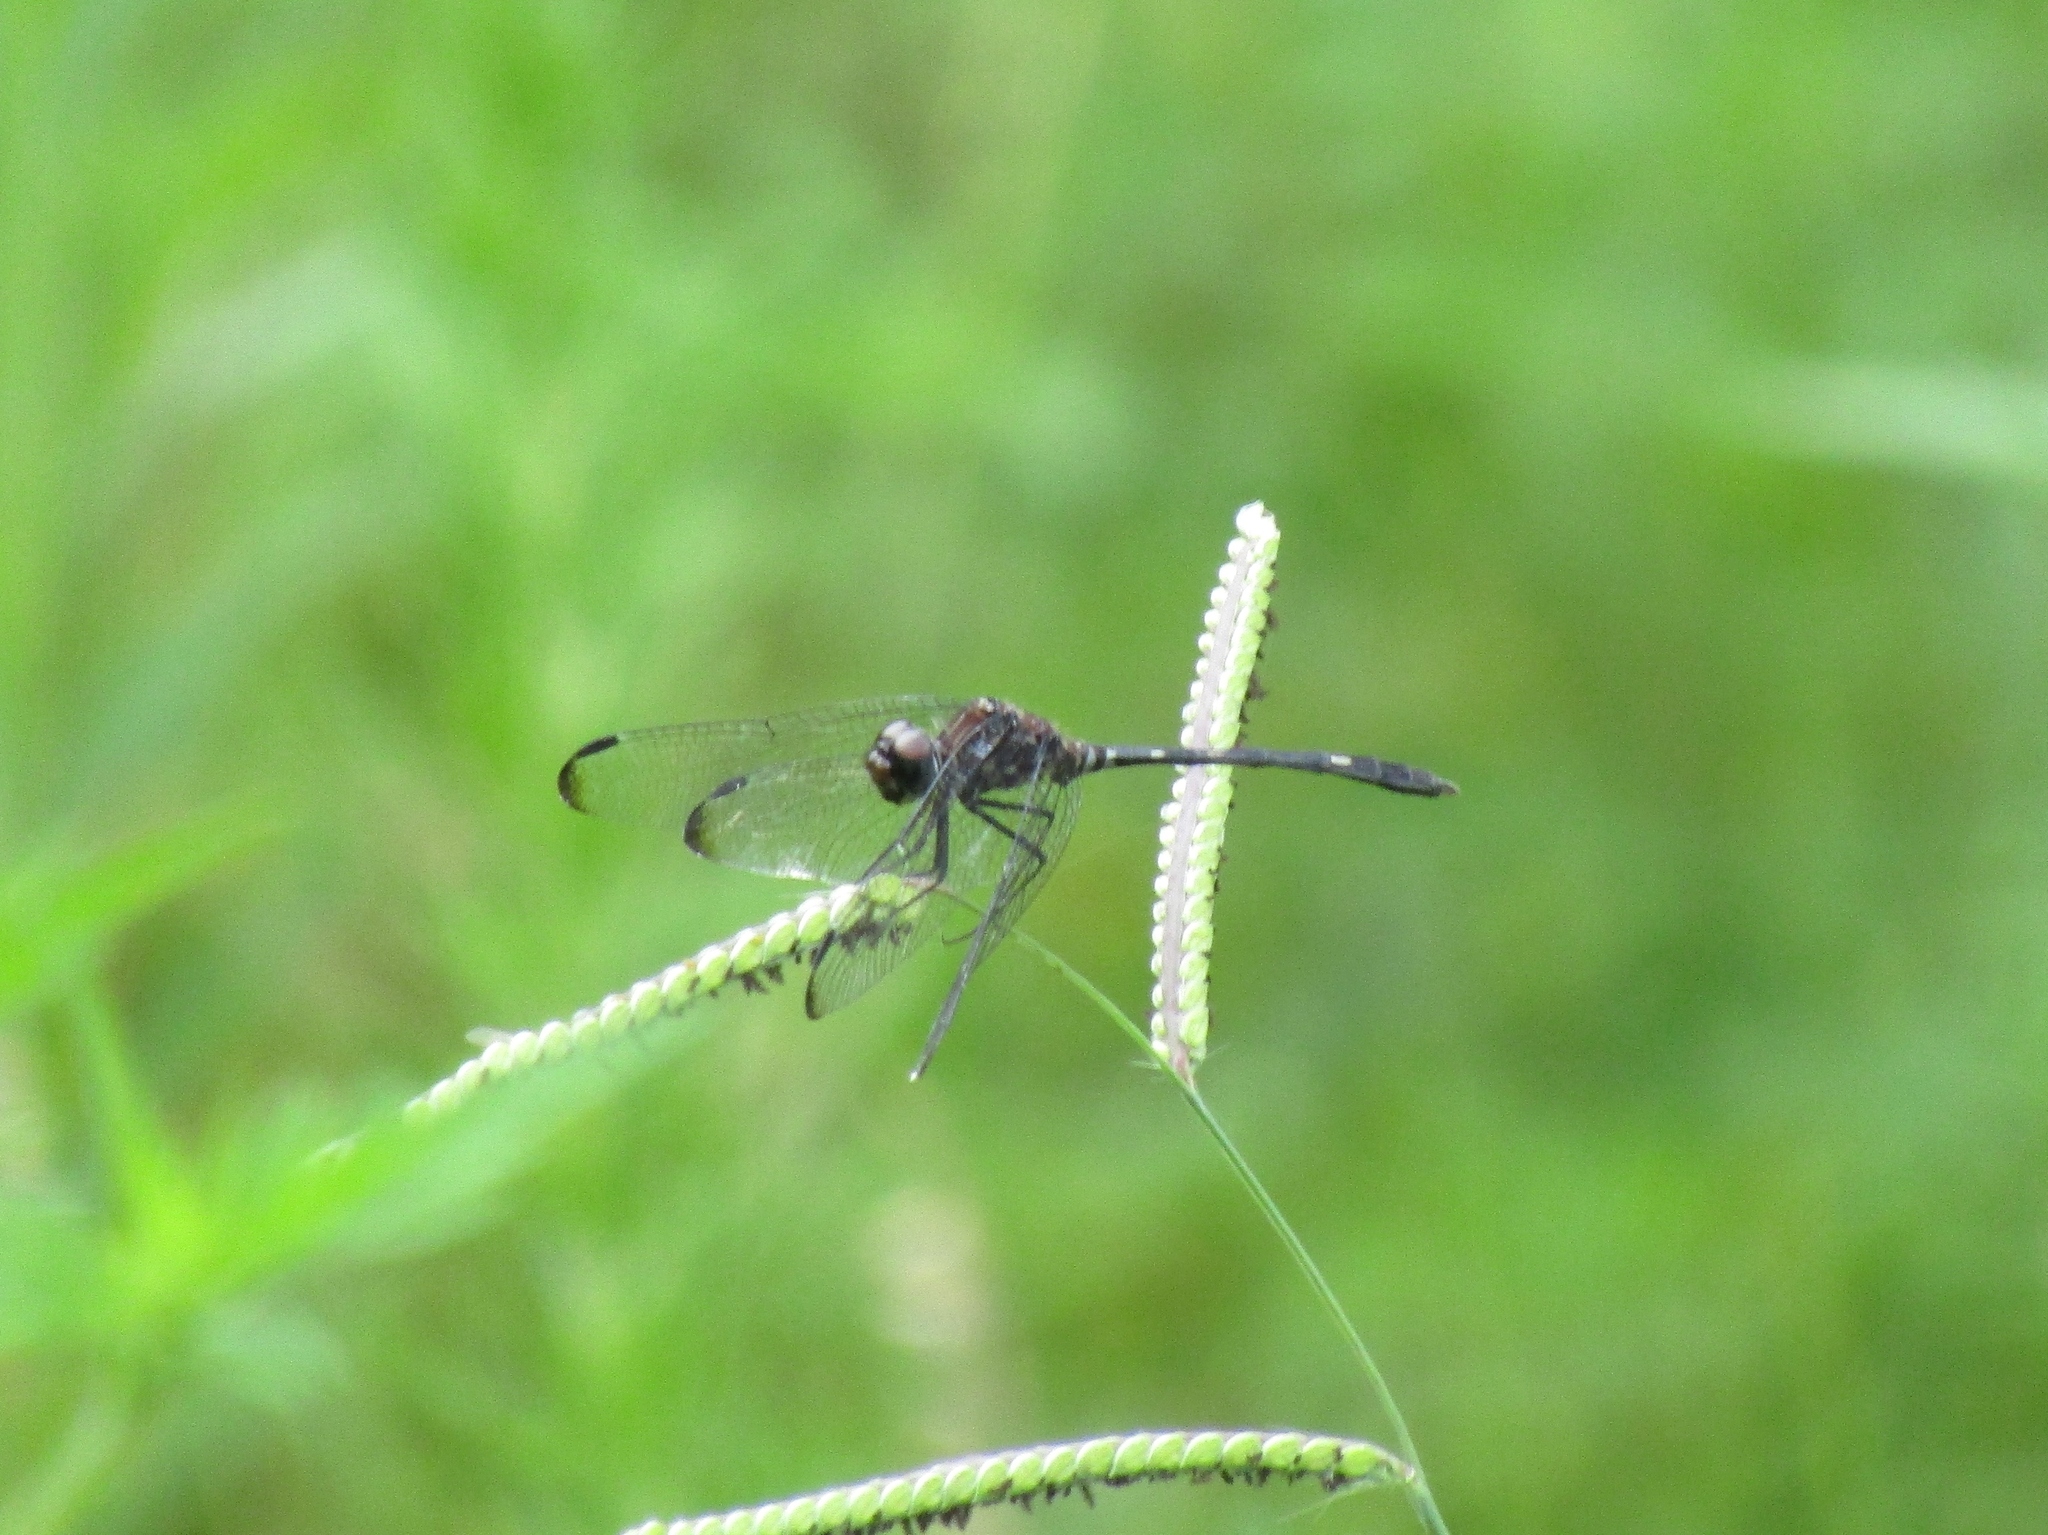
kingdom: Animalia
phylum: Arthropoda
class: Insecta
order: Odonata
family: Libellulidae
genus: Dythemis
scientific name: Dythemis velox
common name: Swift setwing
